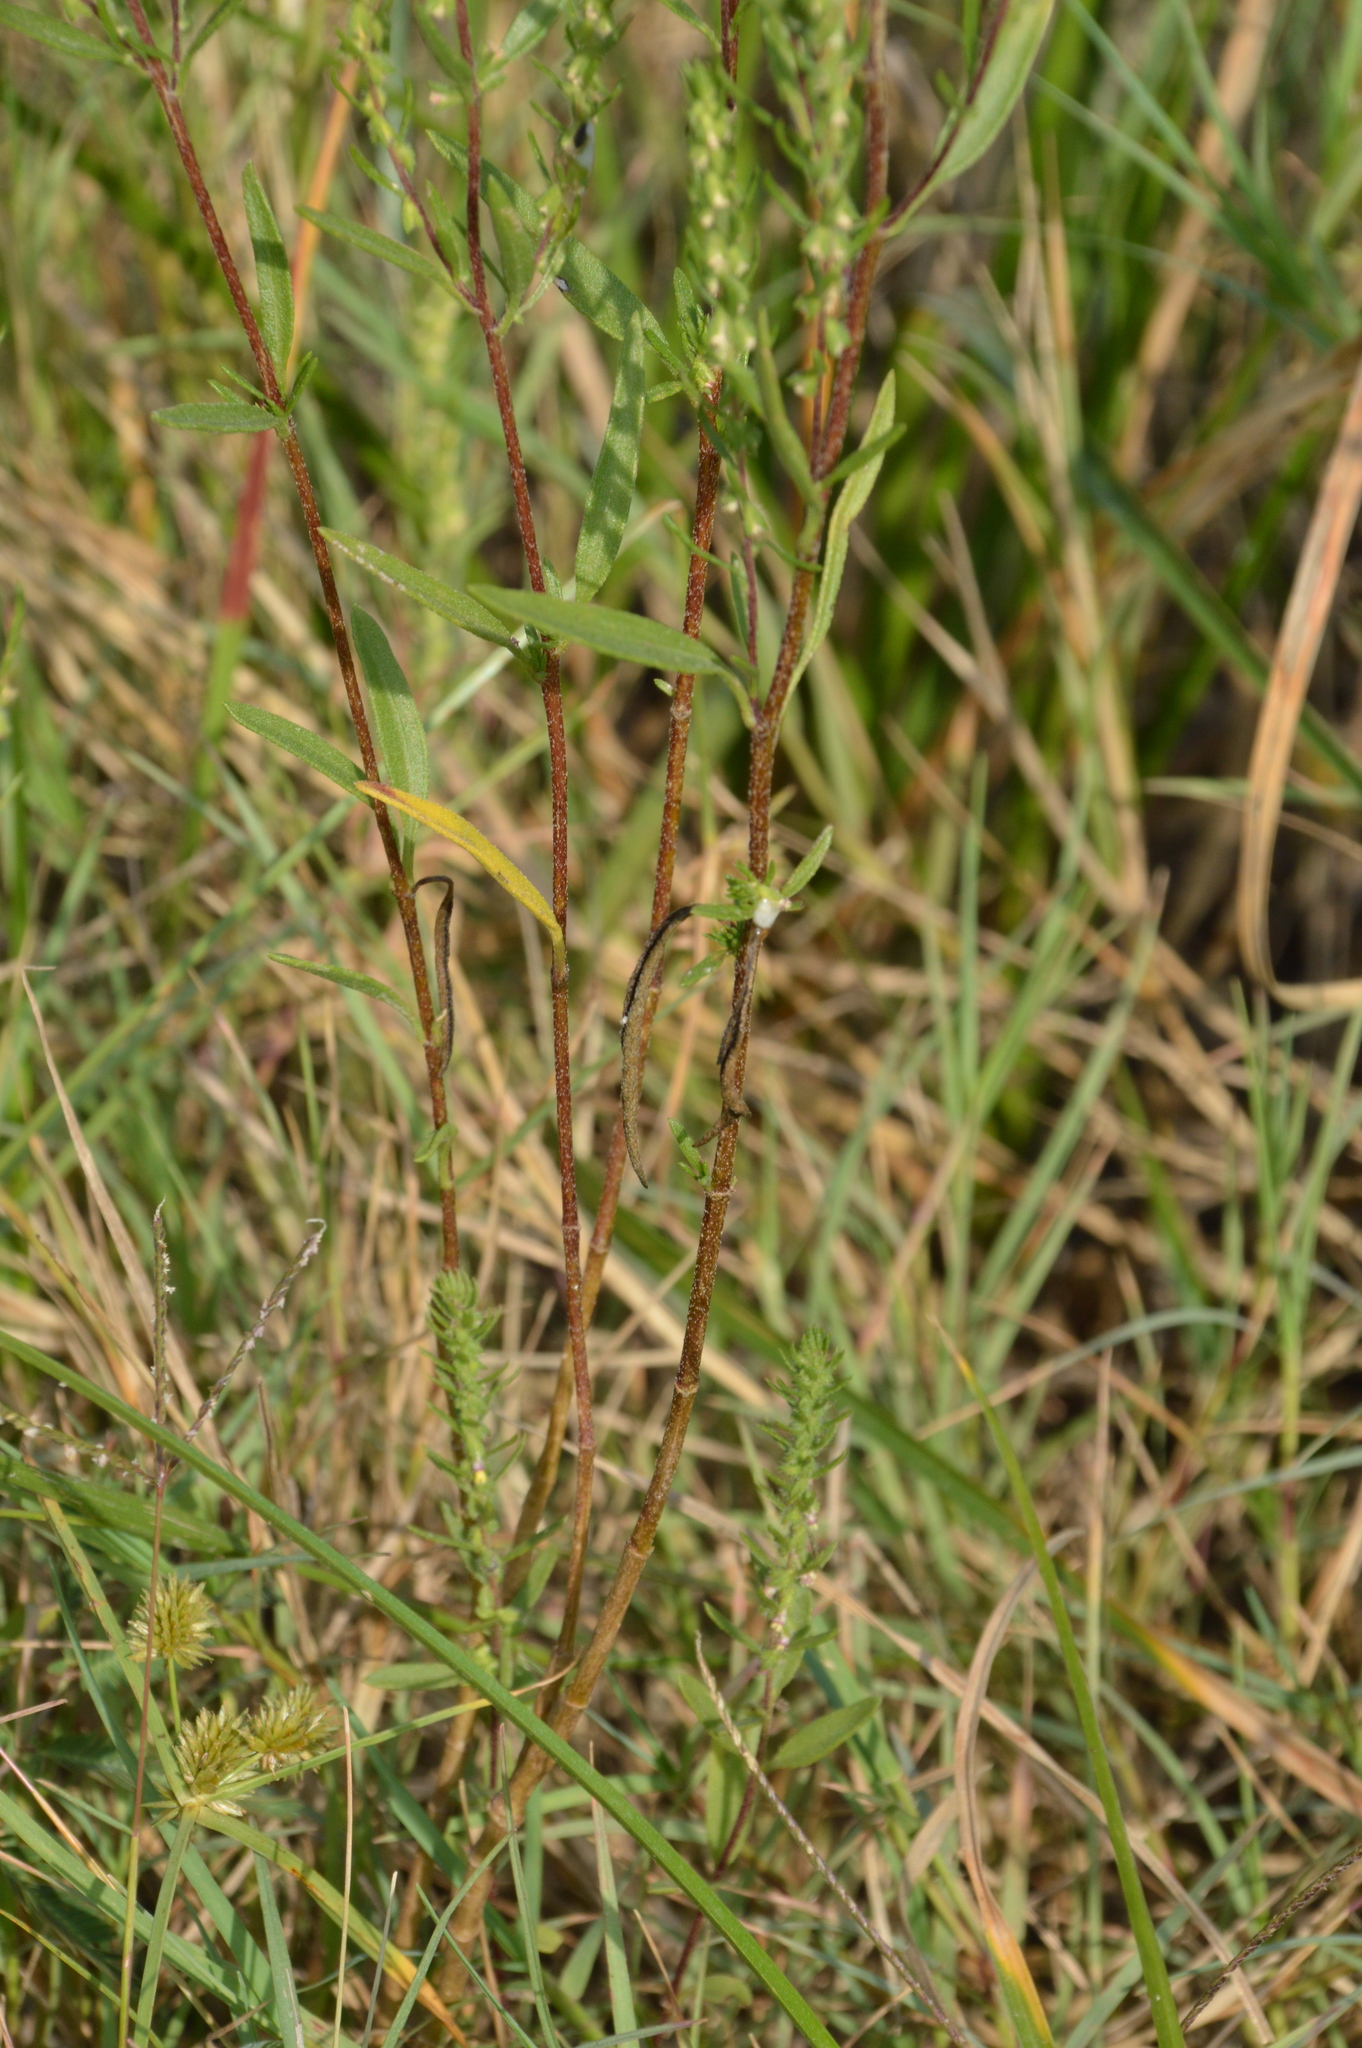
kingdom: Plantae
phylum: Tracheophyta
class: Magnoliopsida
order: Asterales
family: Asteraceae
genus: Iva
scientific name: Iva asperifolia
